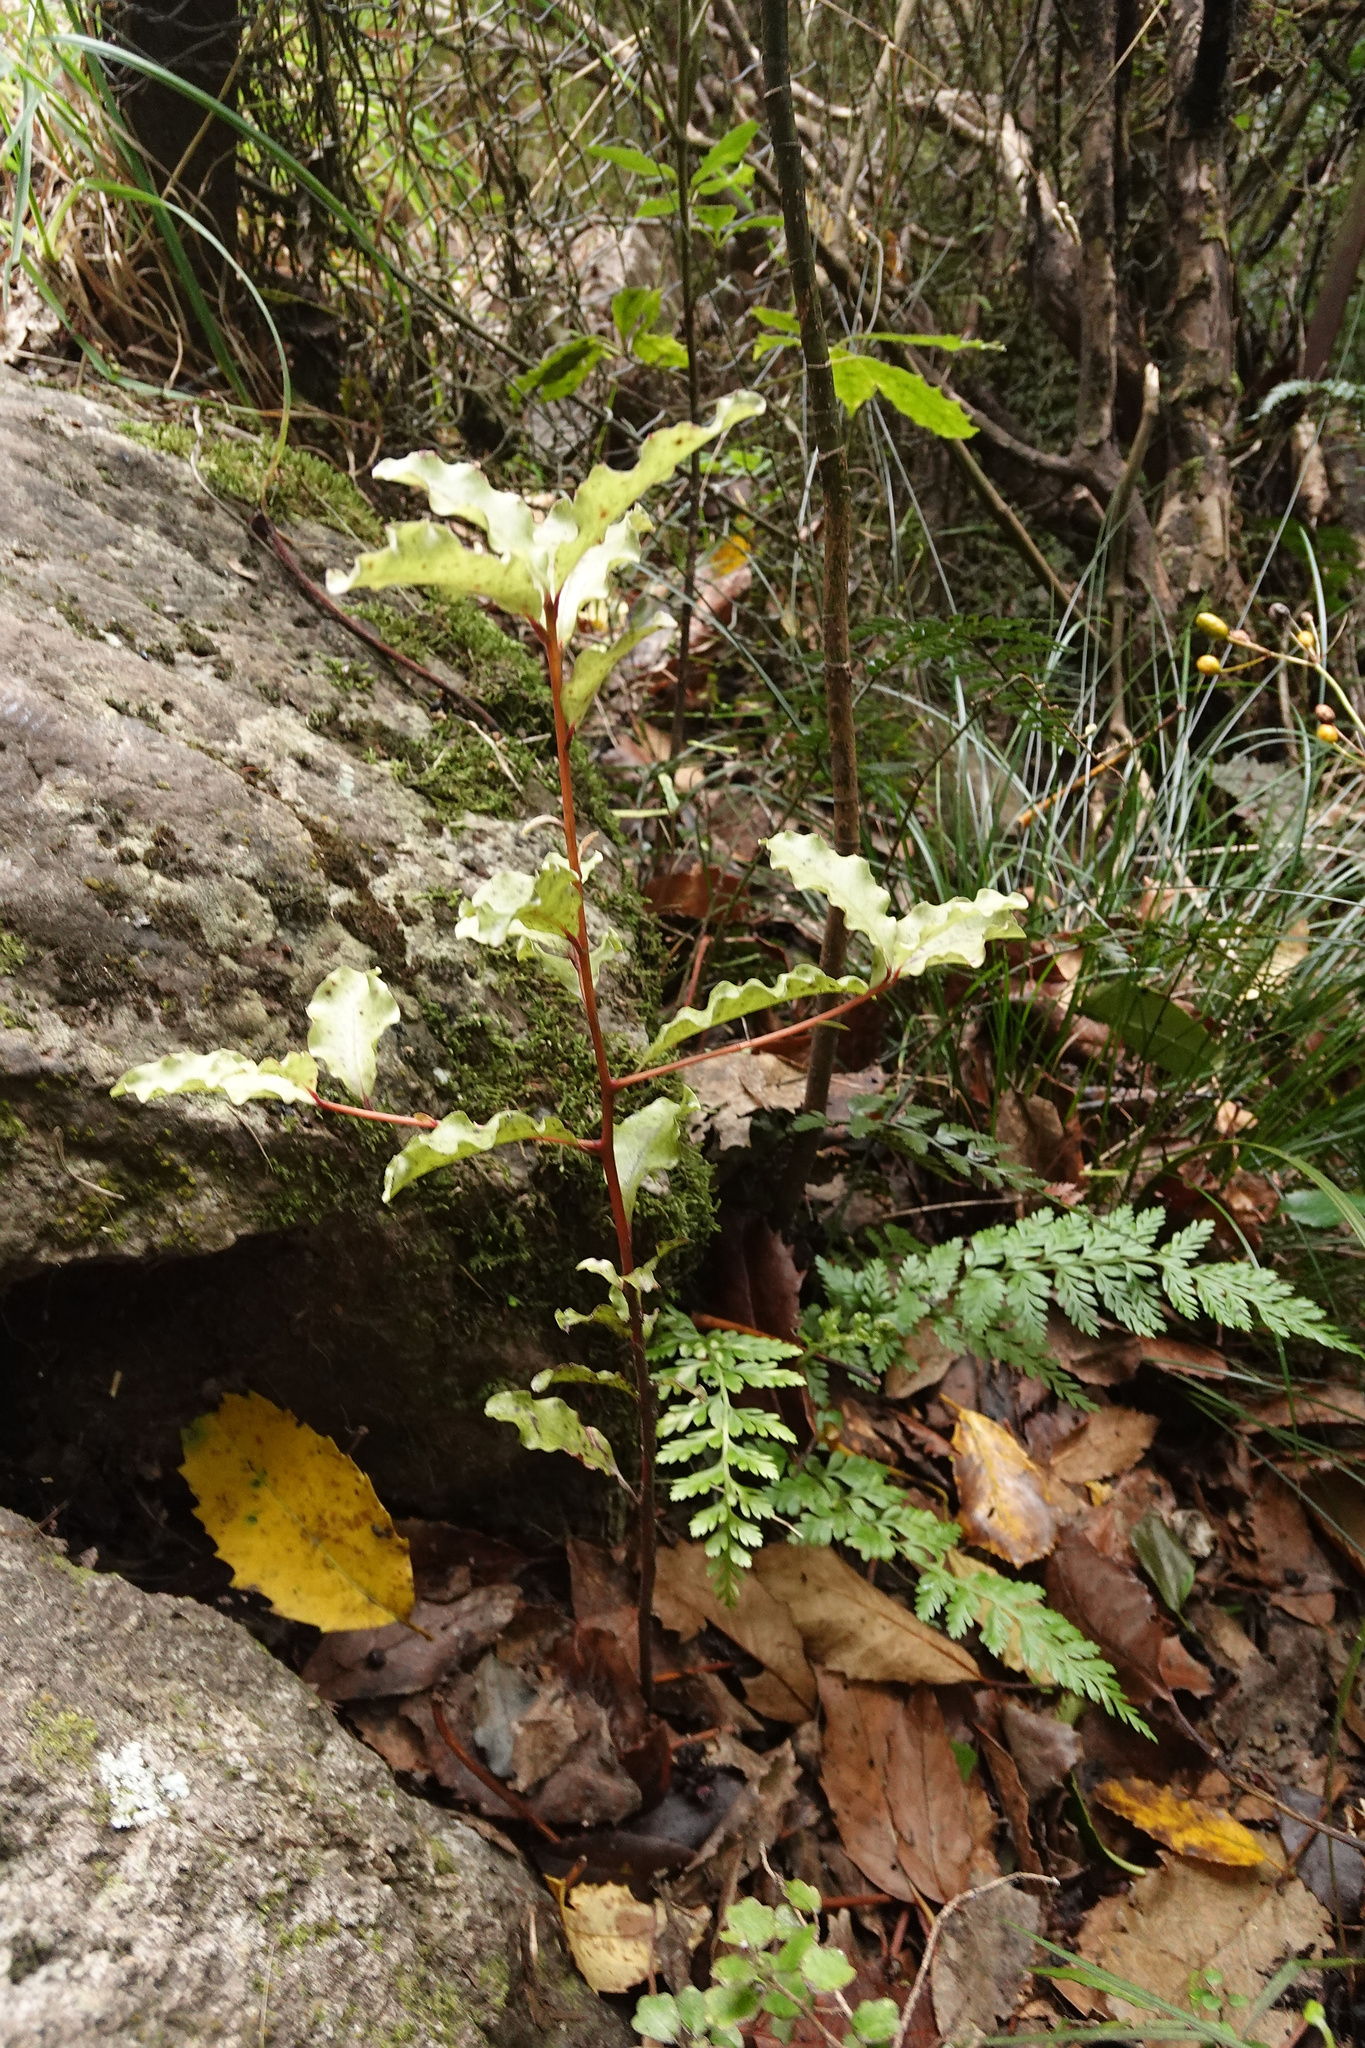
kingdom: Plantae
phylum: Tracheophyta
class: Magnoliopsida
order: Ericales
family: Primulaceae
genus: Myrsine
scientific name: Myrsine australis
